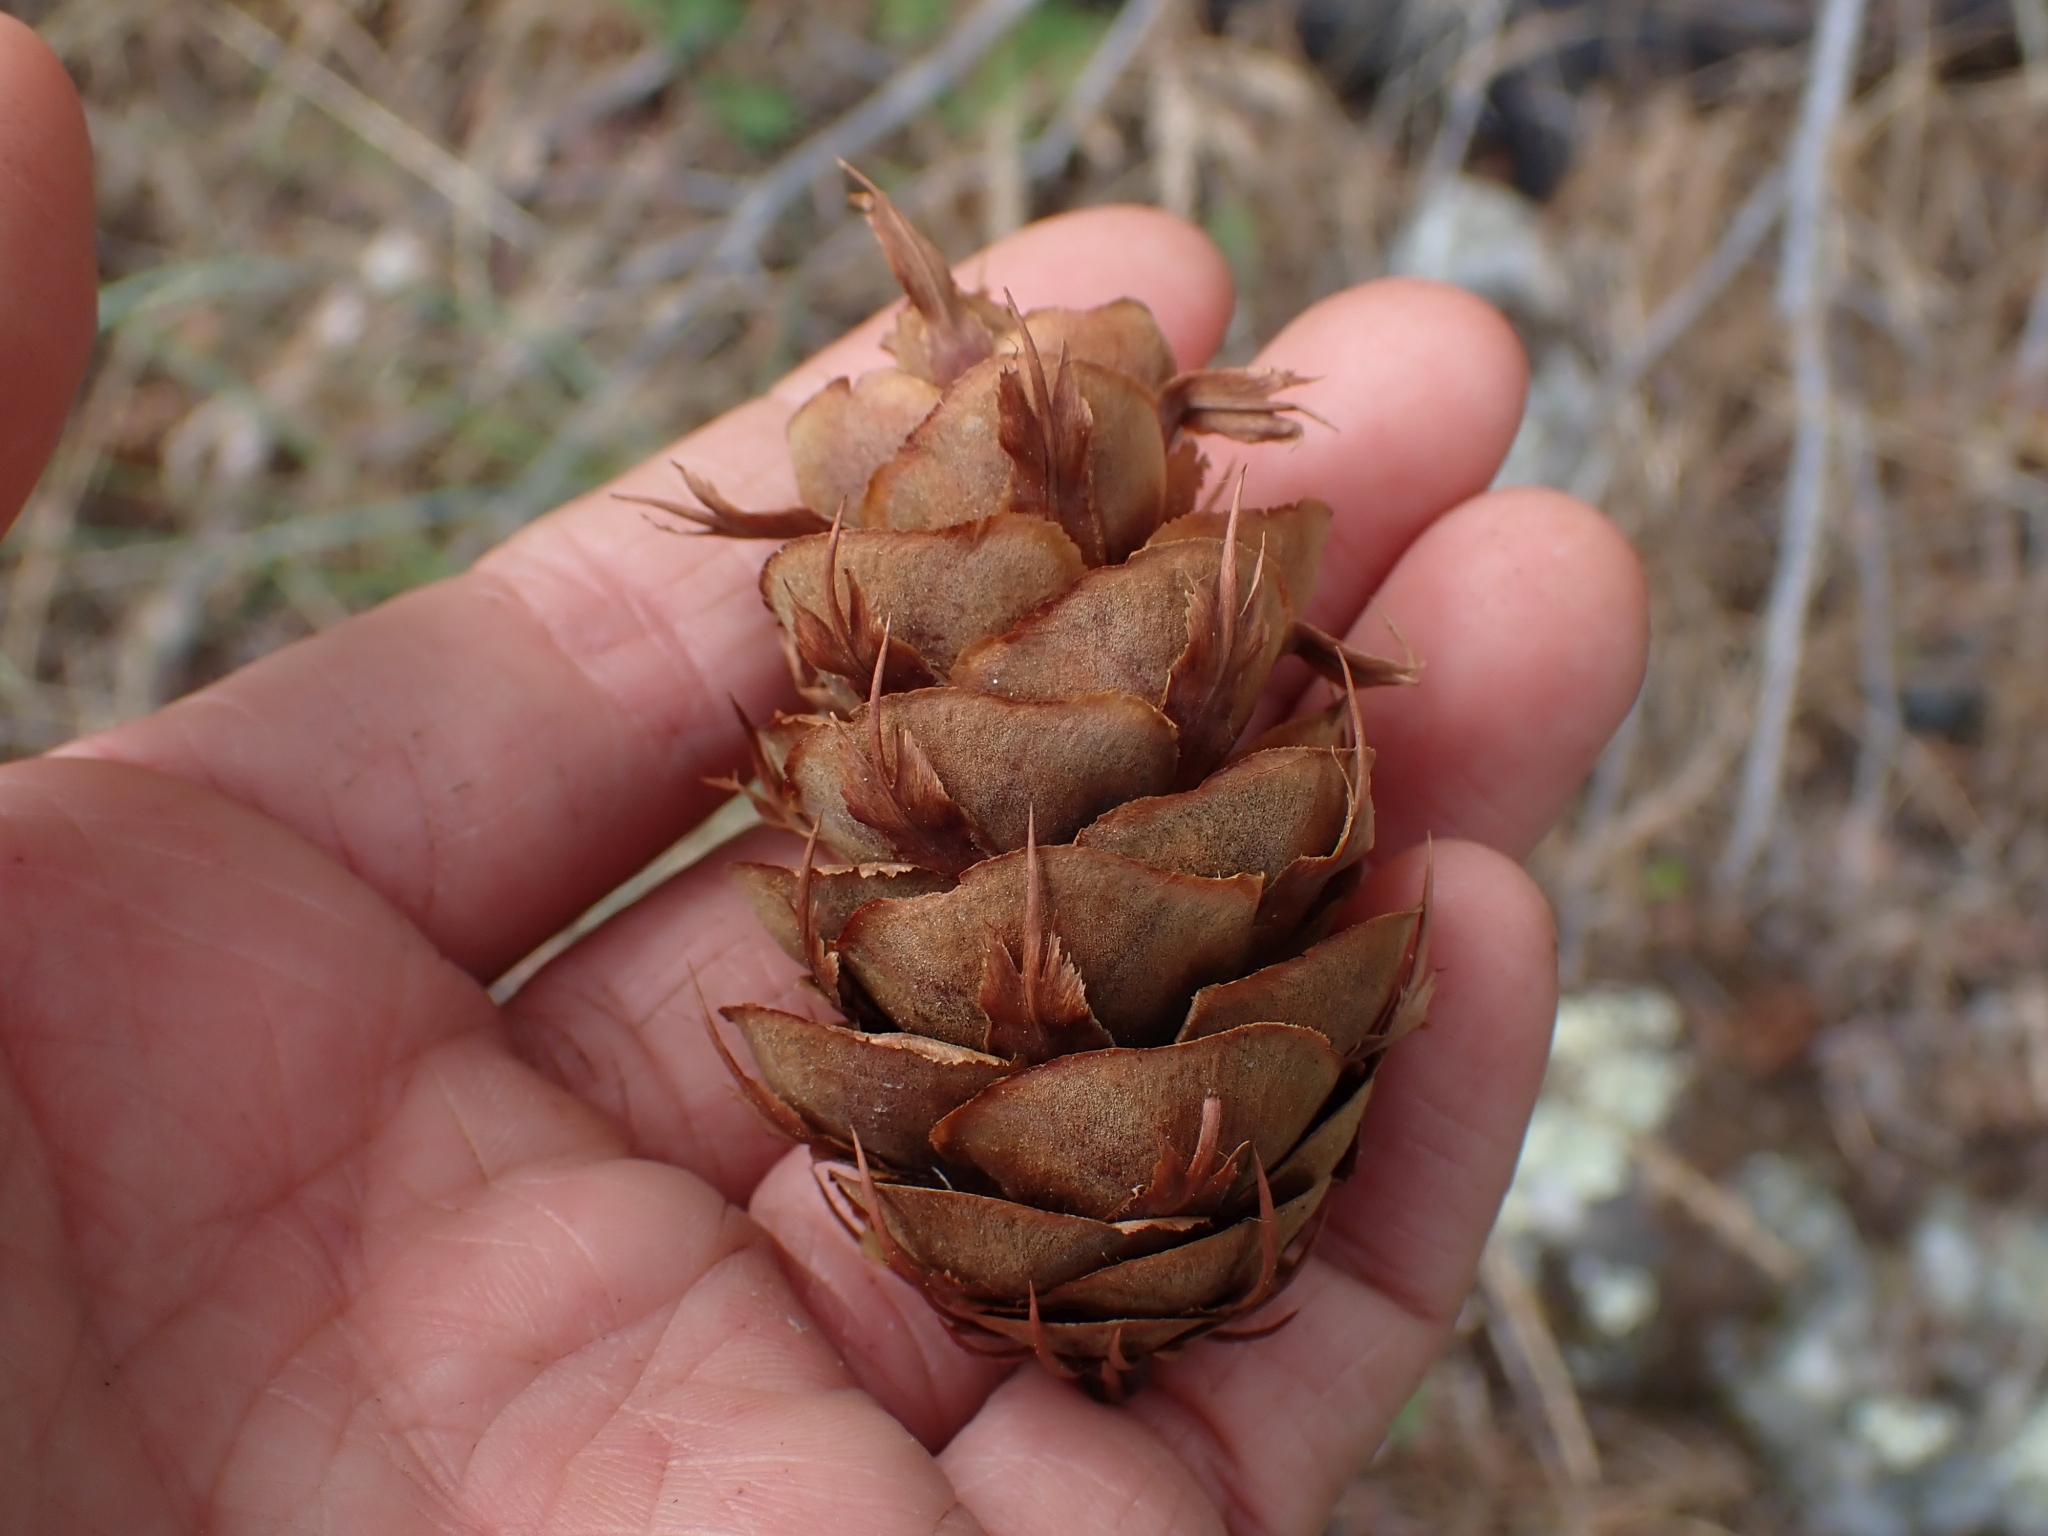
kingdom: Plantae
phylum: Tracheophyta
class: Pinopsida
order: Pinales
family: Pinaceae
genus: Pseudotsuga
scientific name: Pseudotsuga menziesii
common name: Douglas fir
